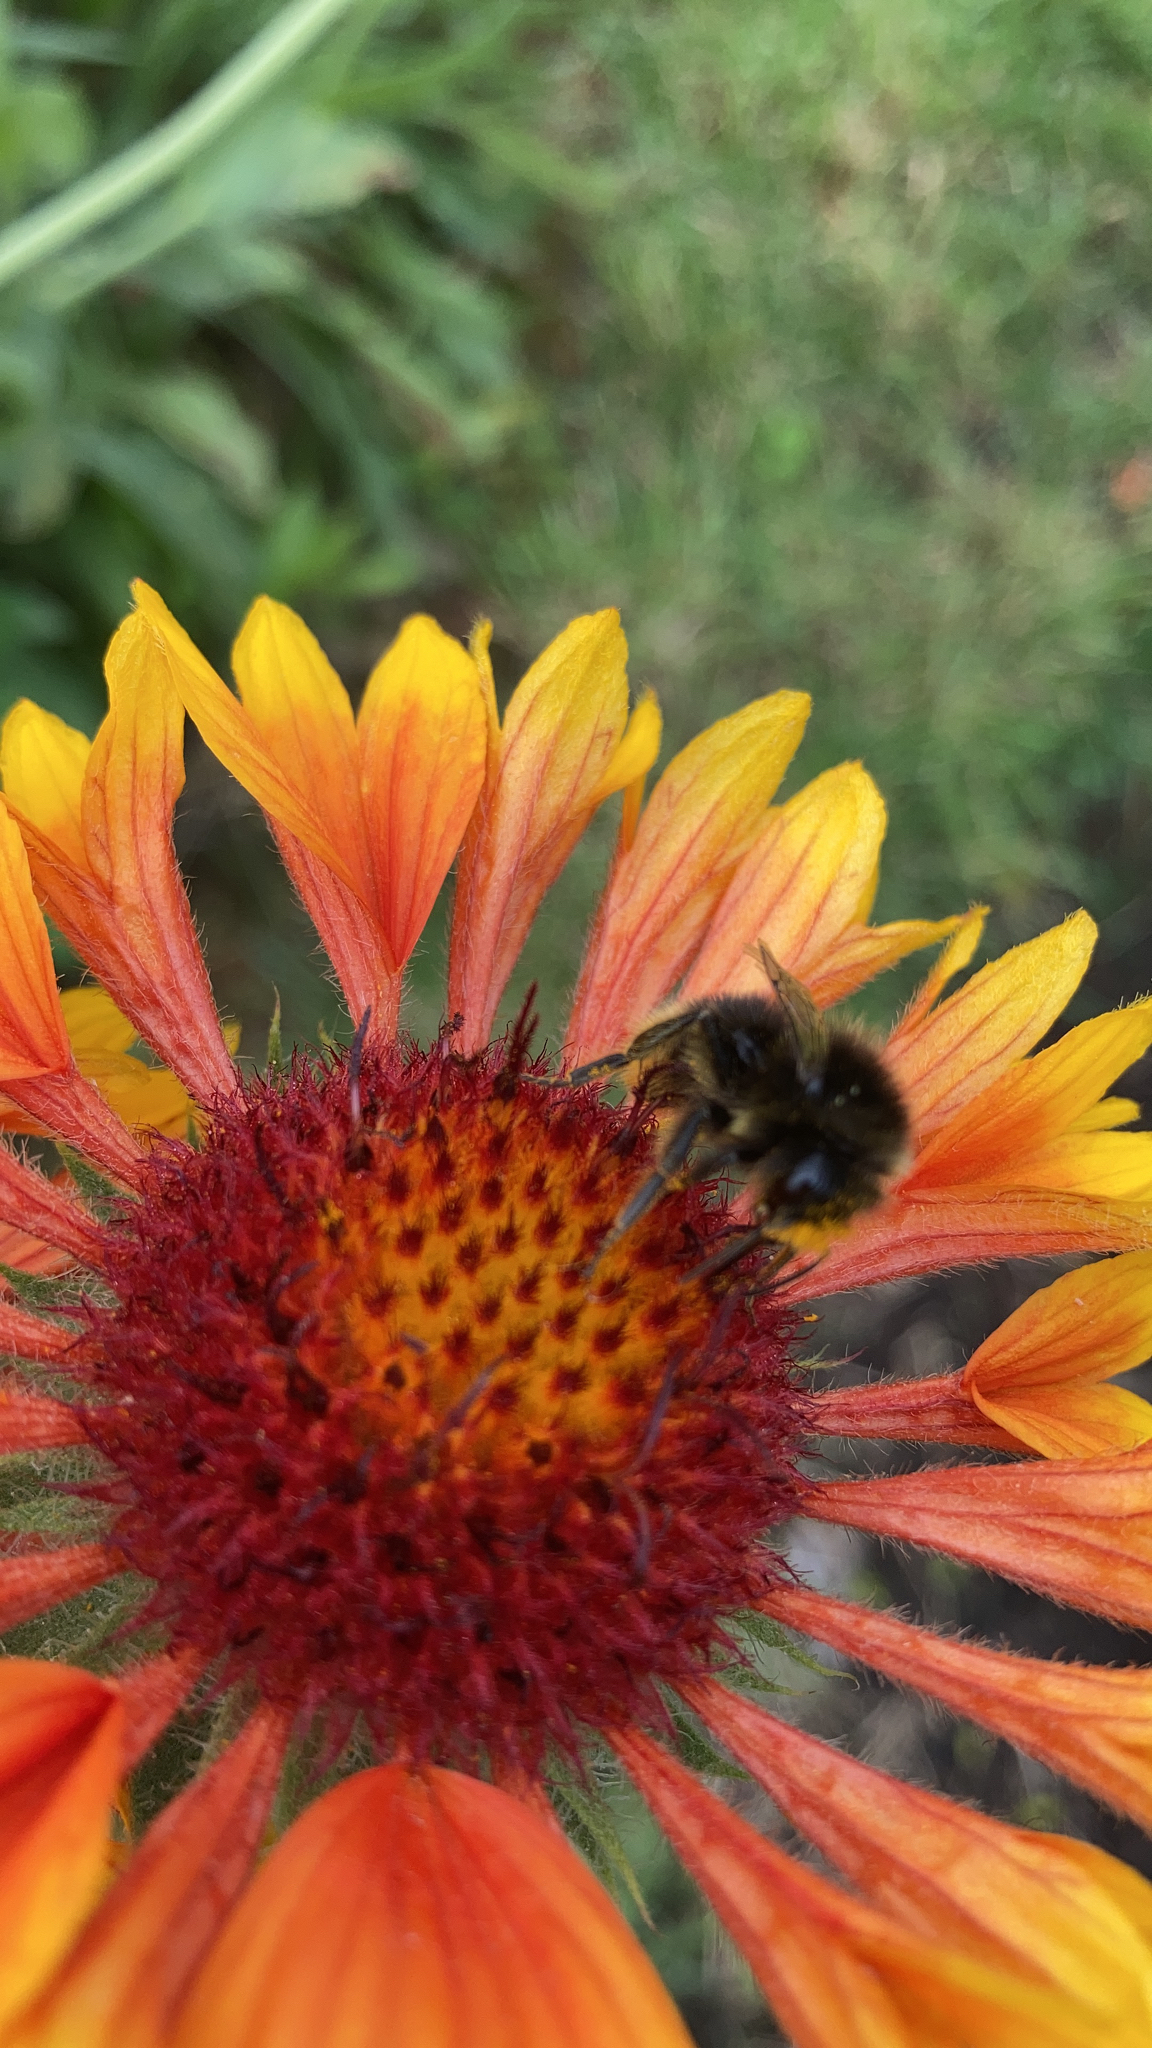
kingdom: Animalia
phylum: Arthropoda
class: Insecta
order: Hymenoptera
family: Apidae
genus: Bombus
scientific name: Bombus lapidarius
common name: Large red-tailed humble-bee
